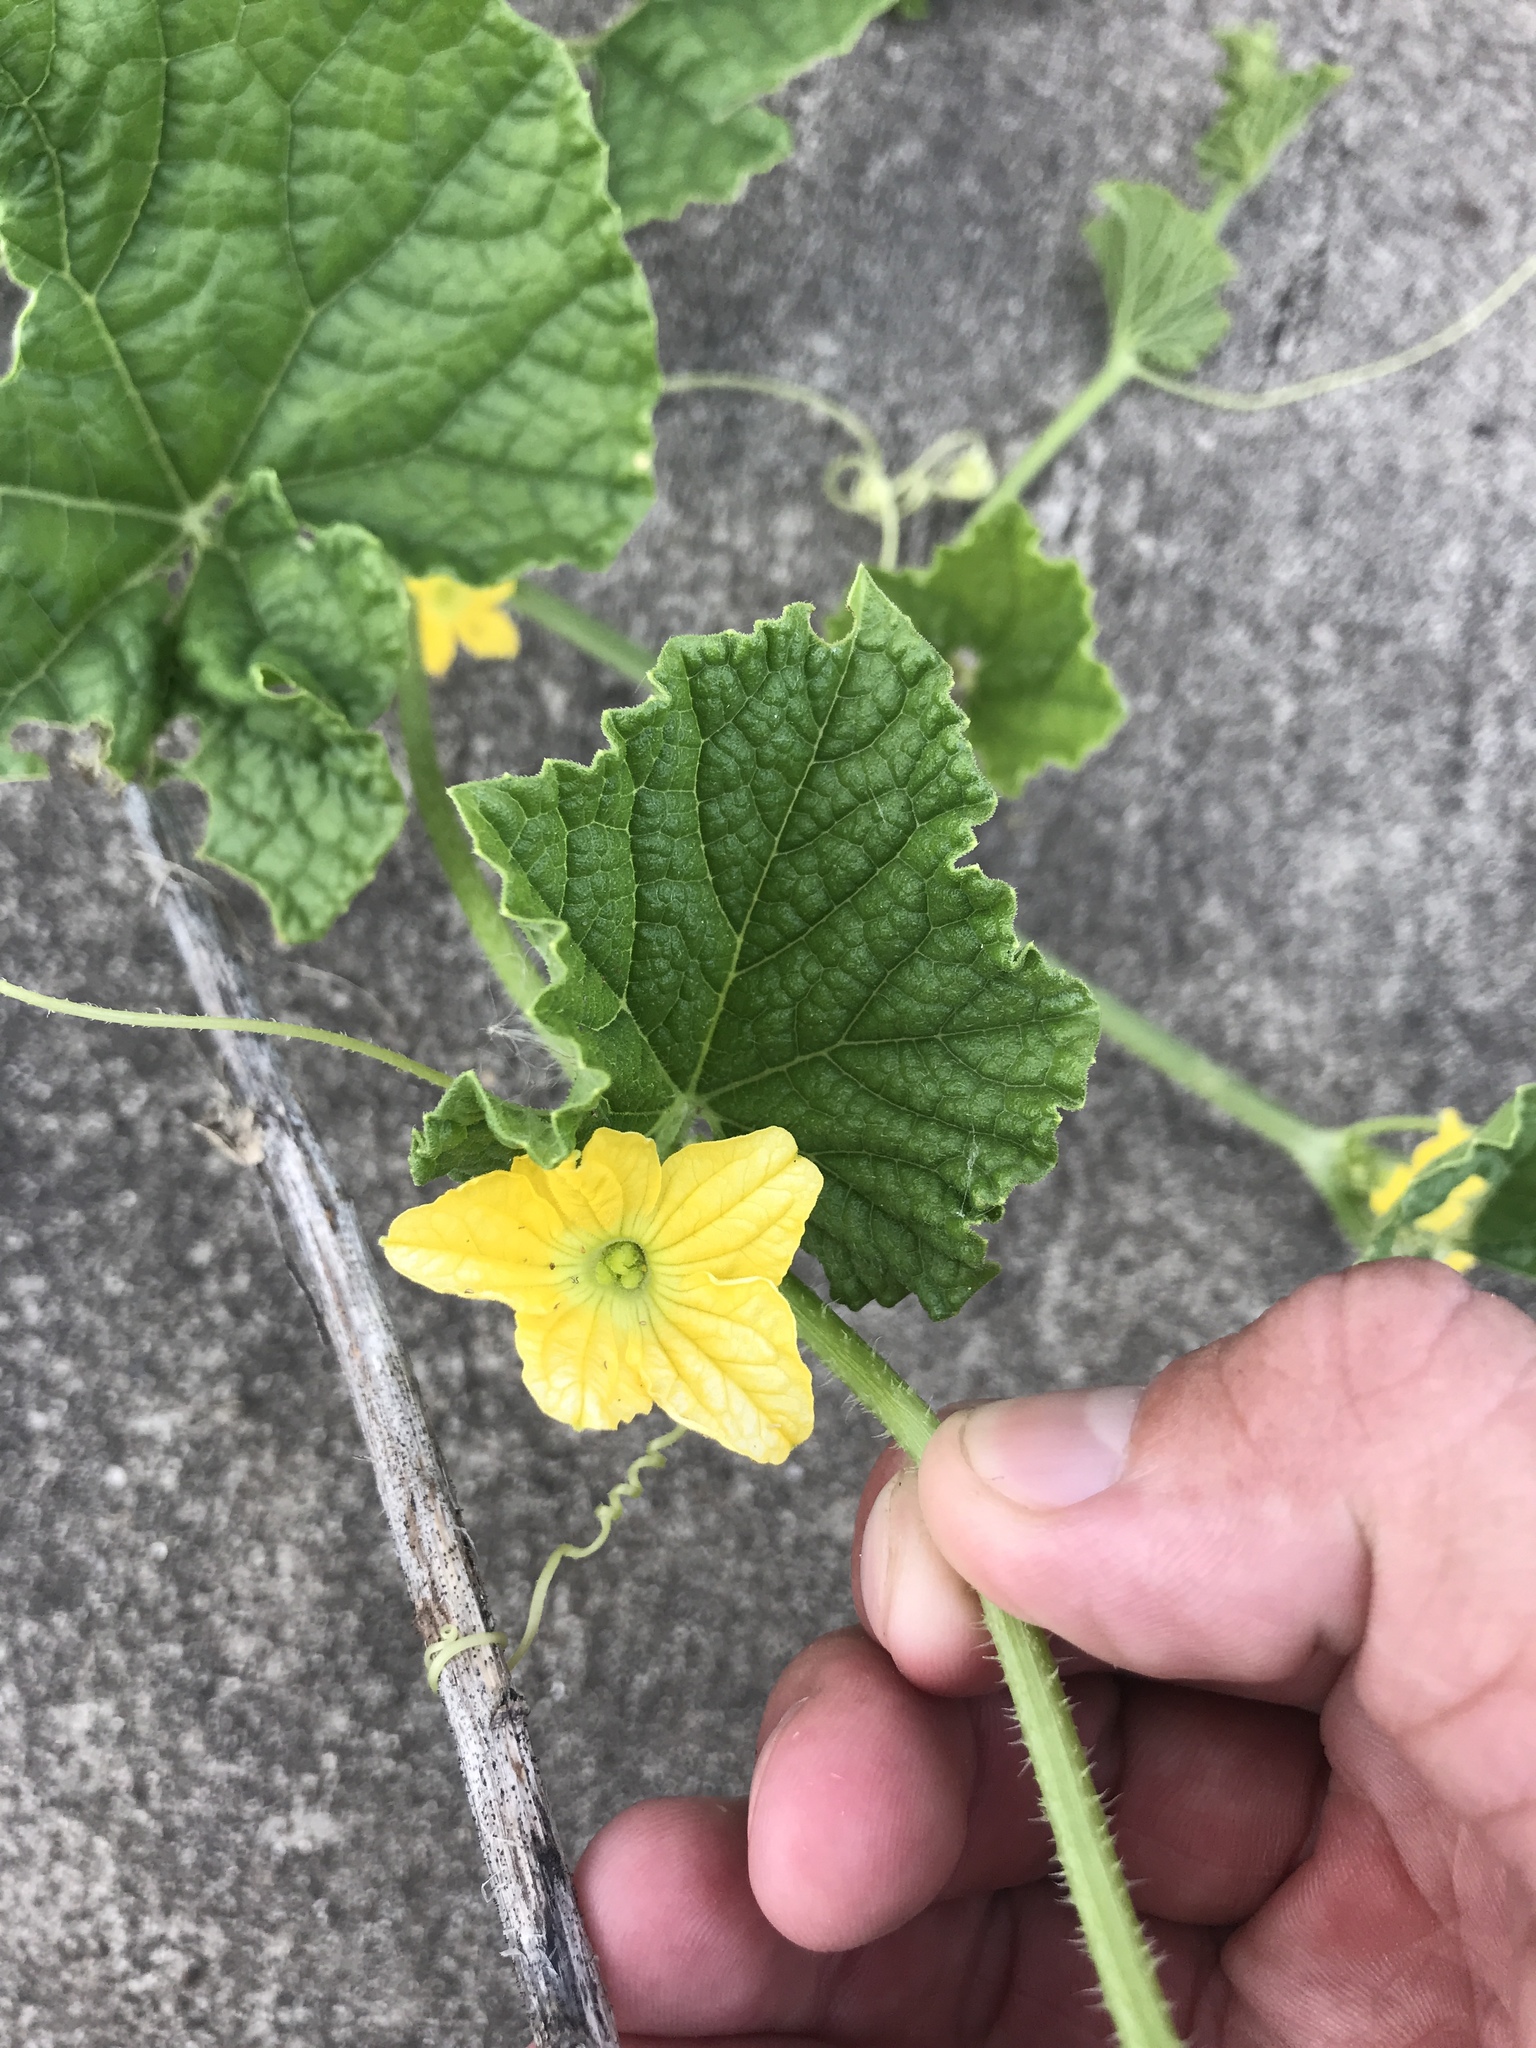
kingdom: Plantae
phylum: Tracheophyta
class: Magnoliopsida
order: Cucurbitales
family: Cucurbitaceae
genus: Cucumis
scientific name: Cucumis melo
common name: Melon
